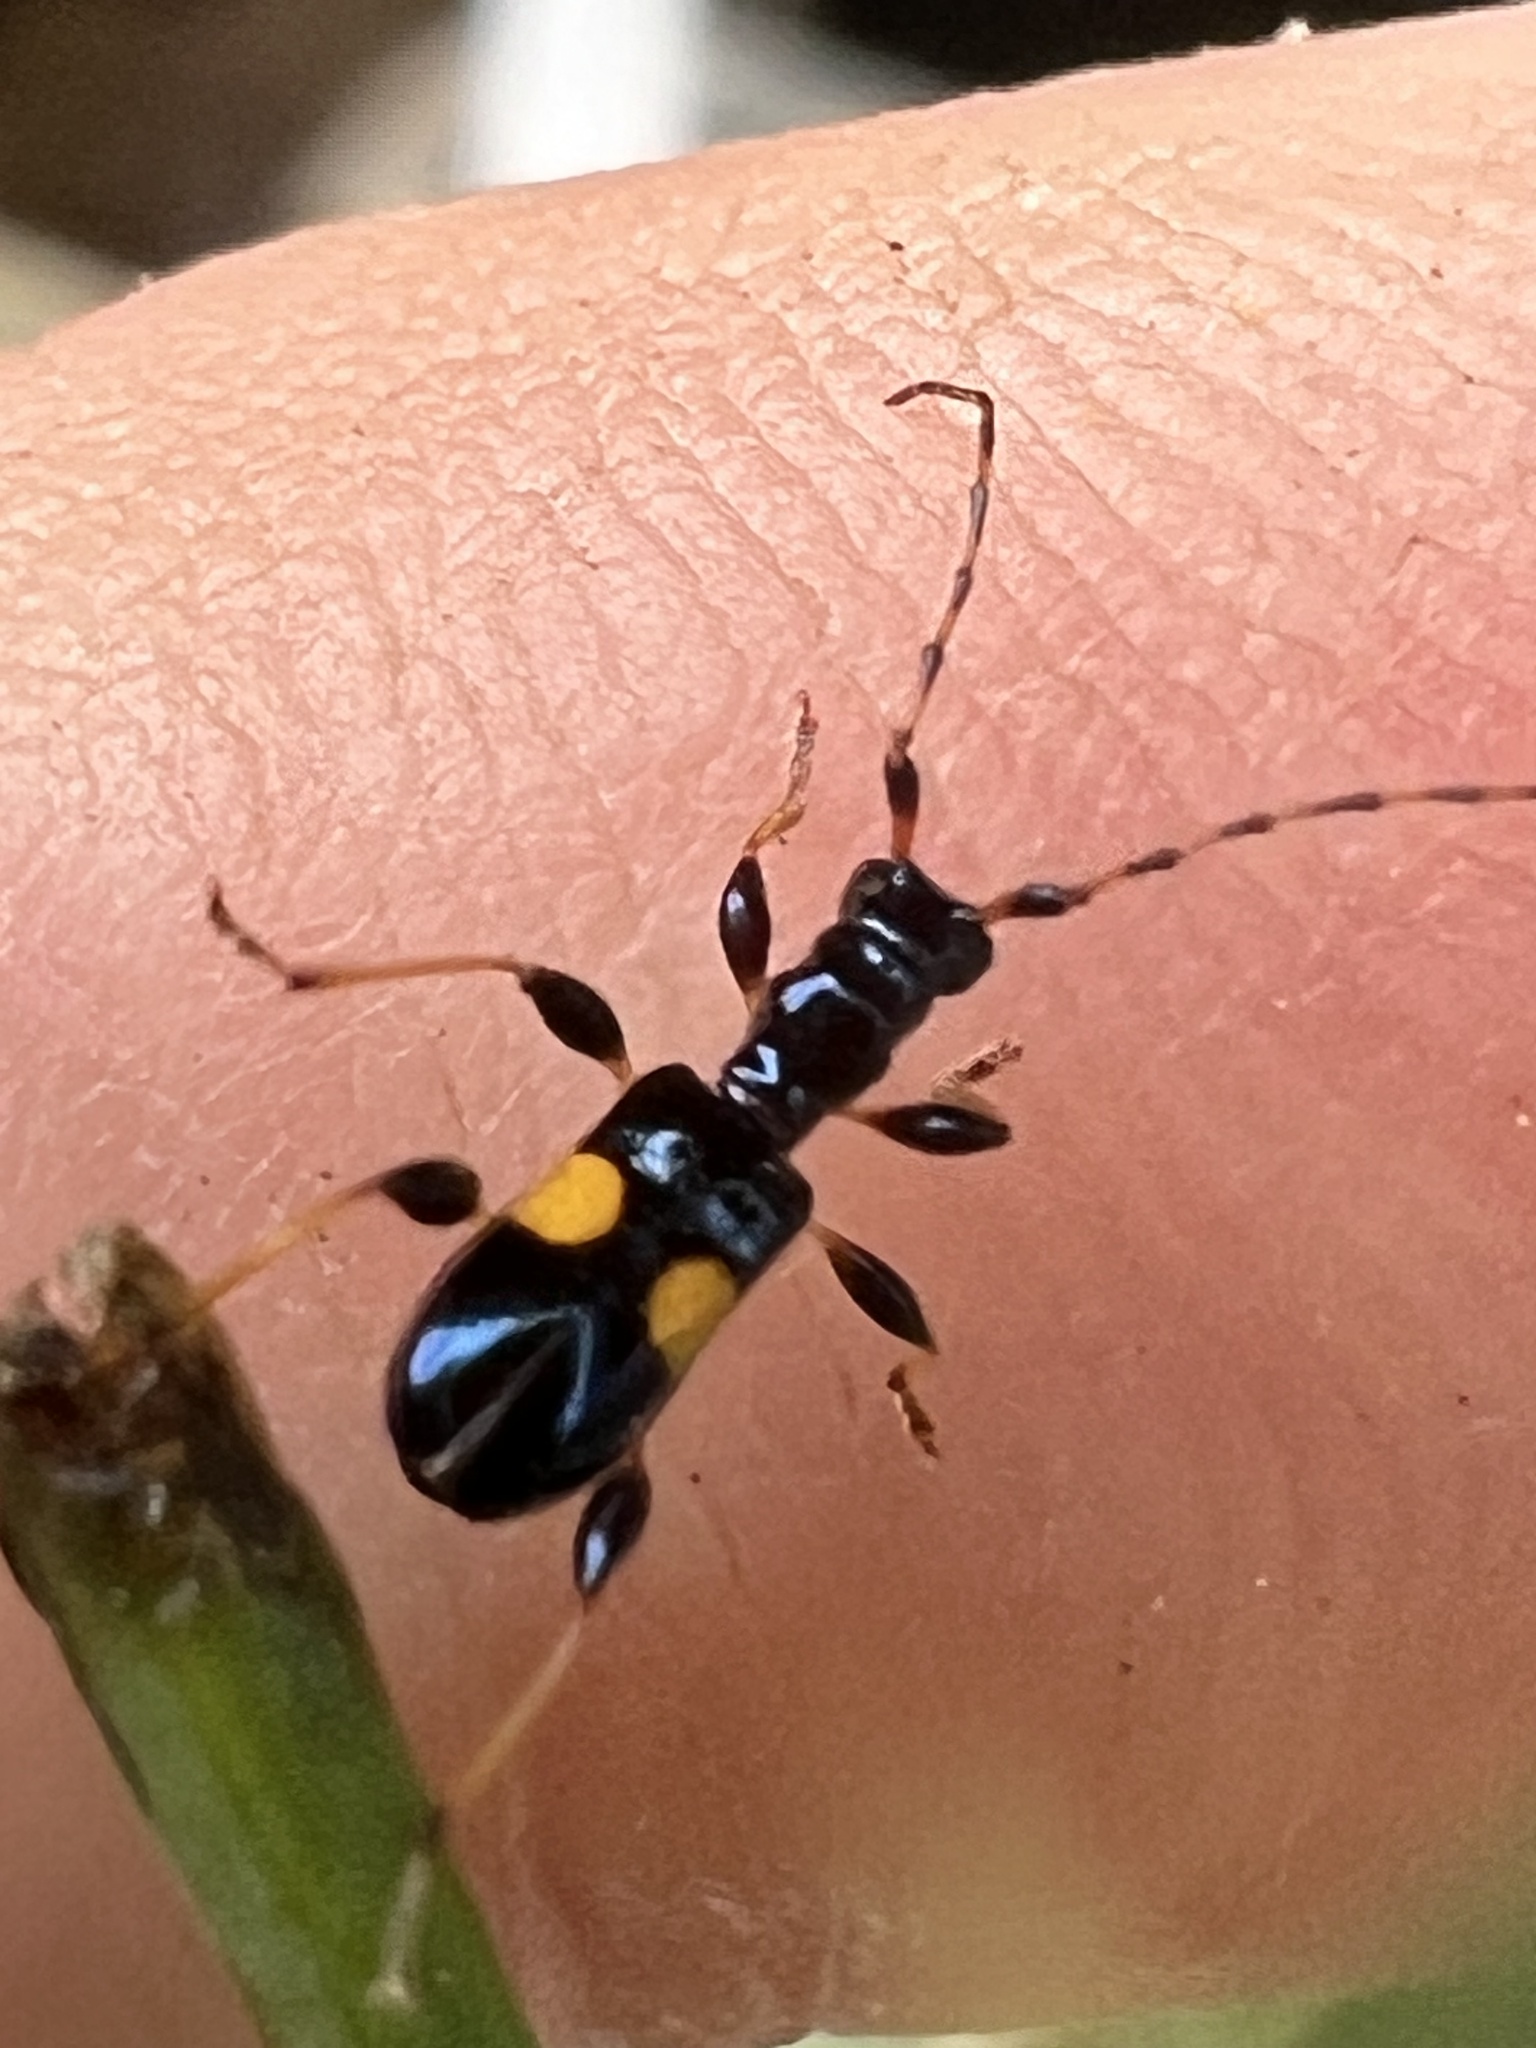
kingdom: Animalia
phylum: Arthropoda
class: Insecta
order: Coleoptera
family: Cerambycidae
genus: Zorion
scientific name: Zorion guttigerum
